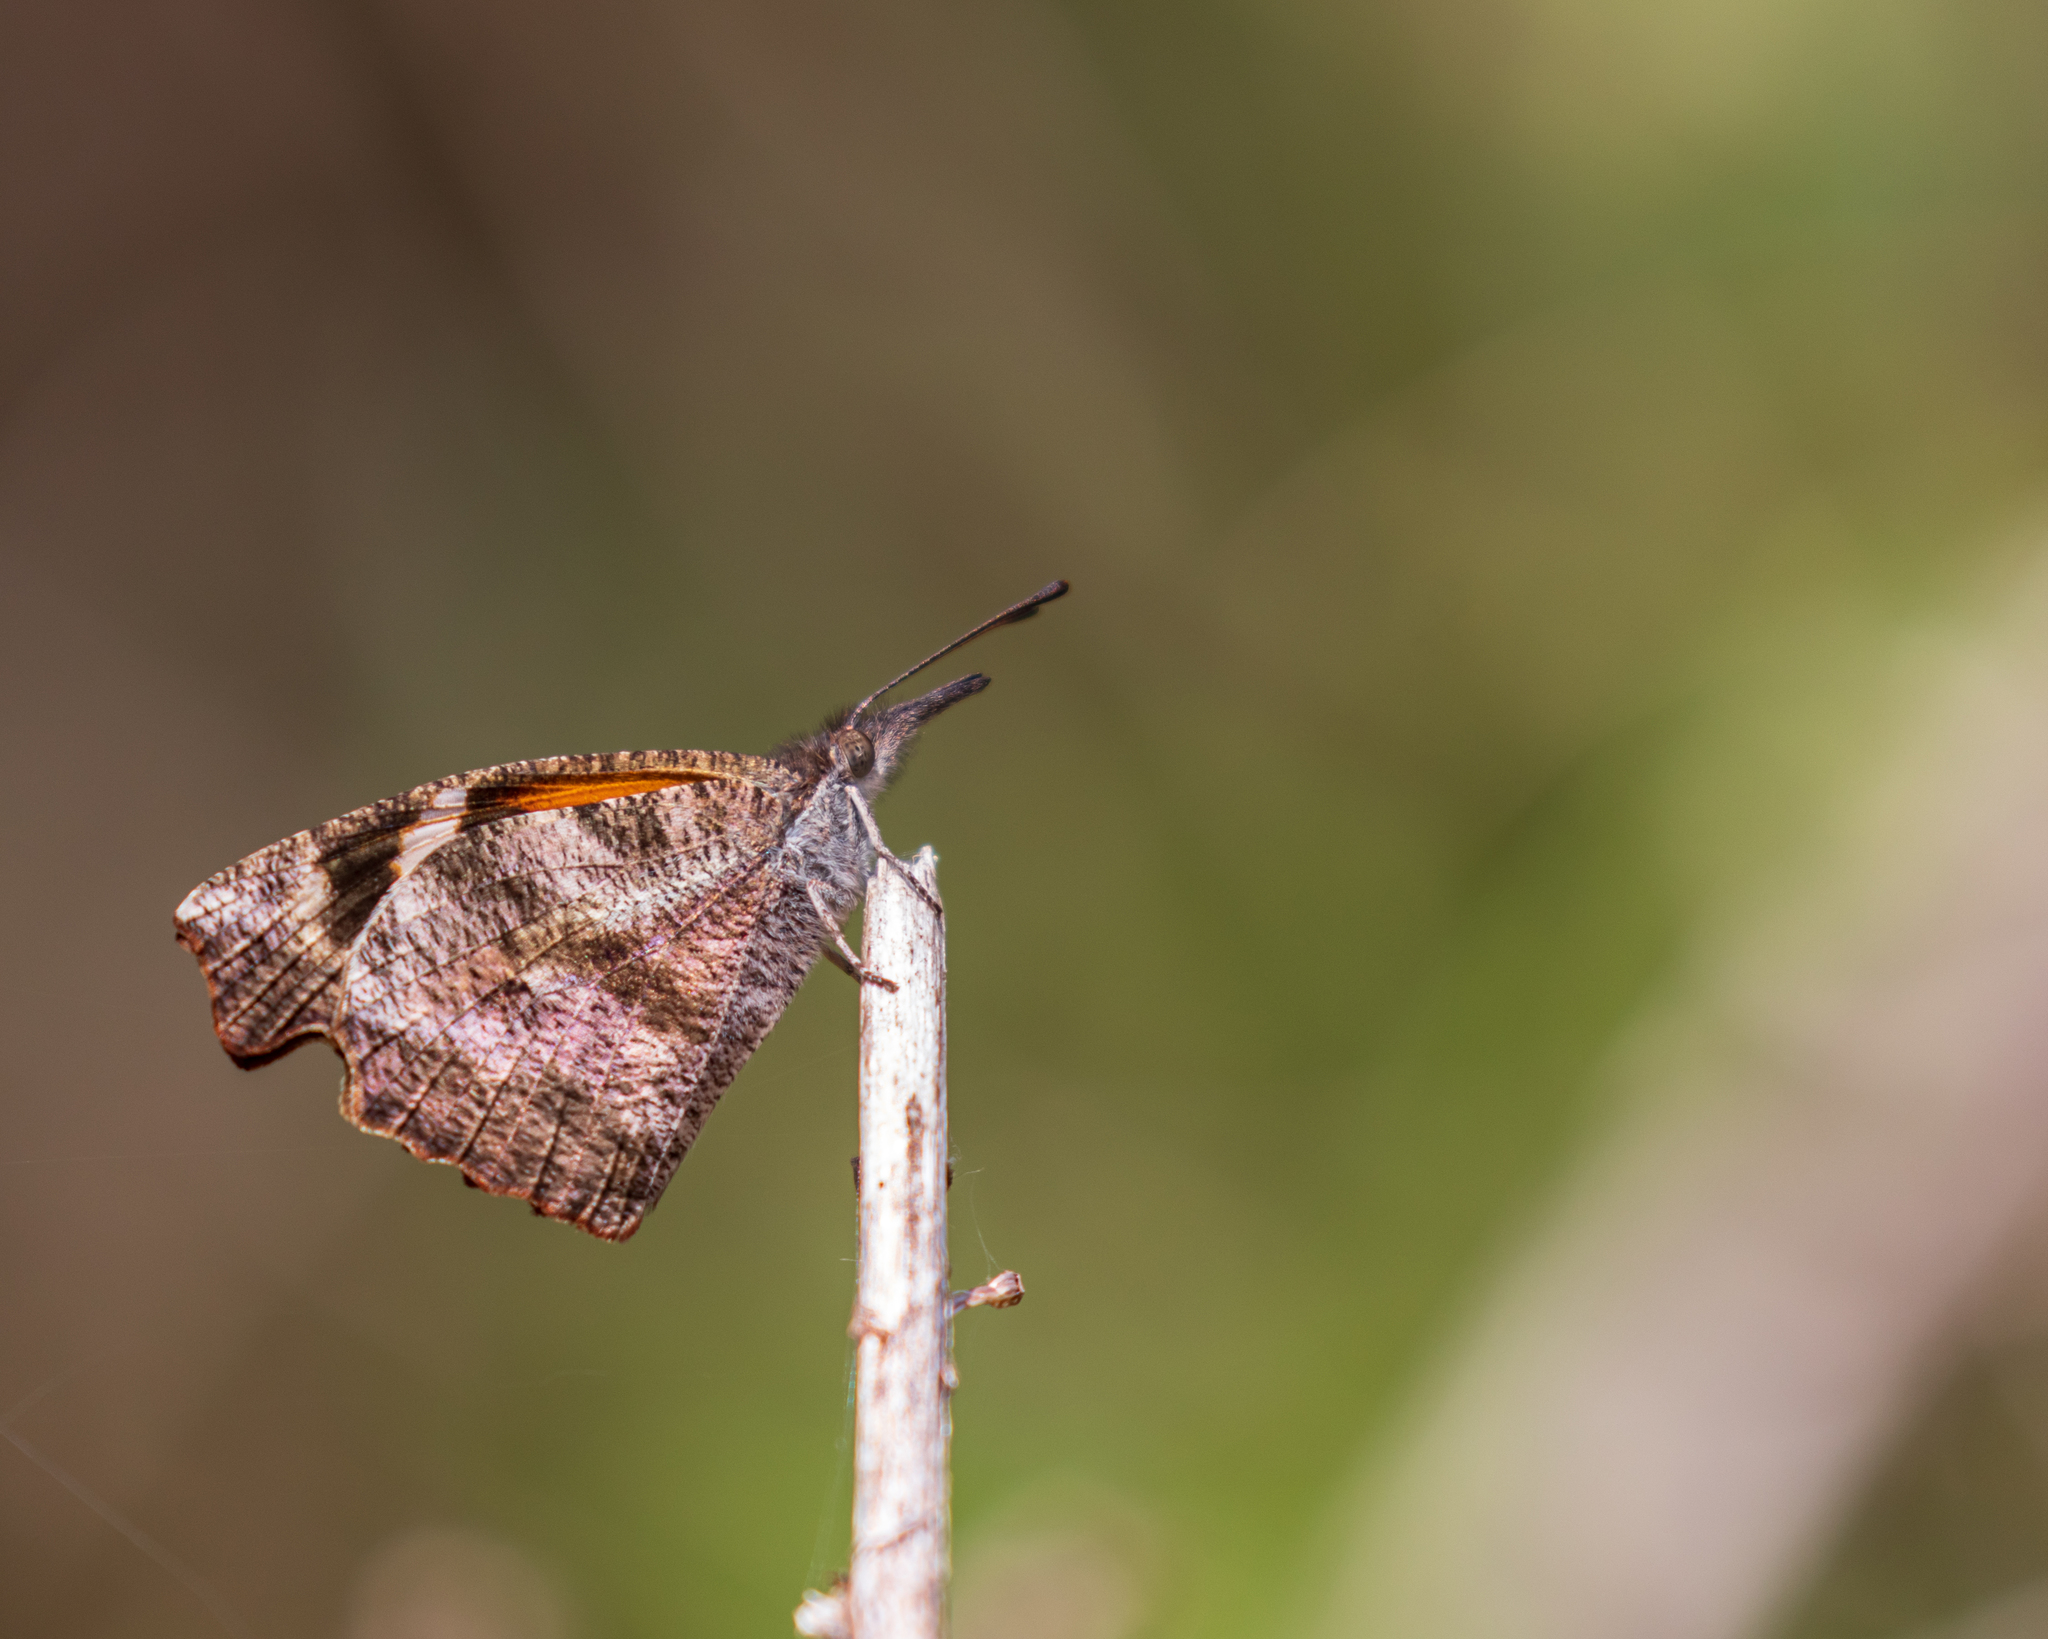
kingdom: Animalia
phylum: Arthropoda
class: Insecta
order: Lepidoptera
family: Nymphalidae
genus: Libytheana
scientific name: Libytheana carinenta
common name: American snout
